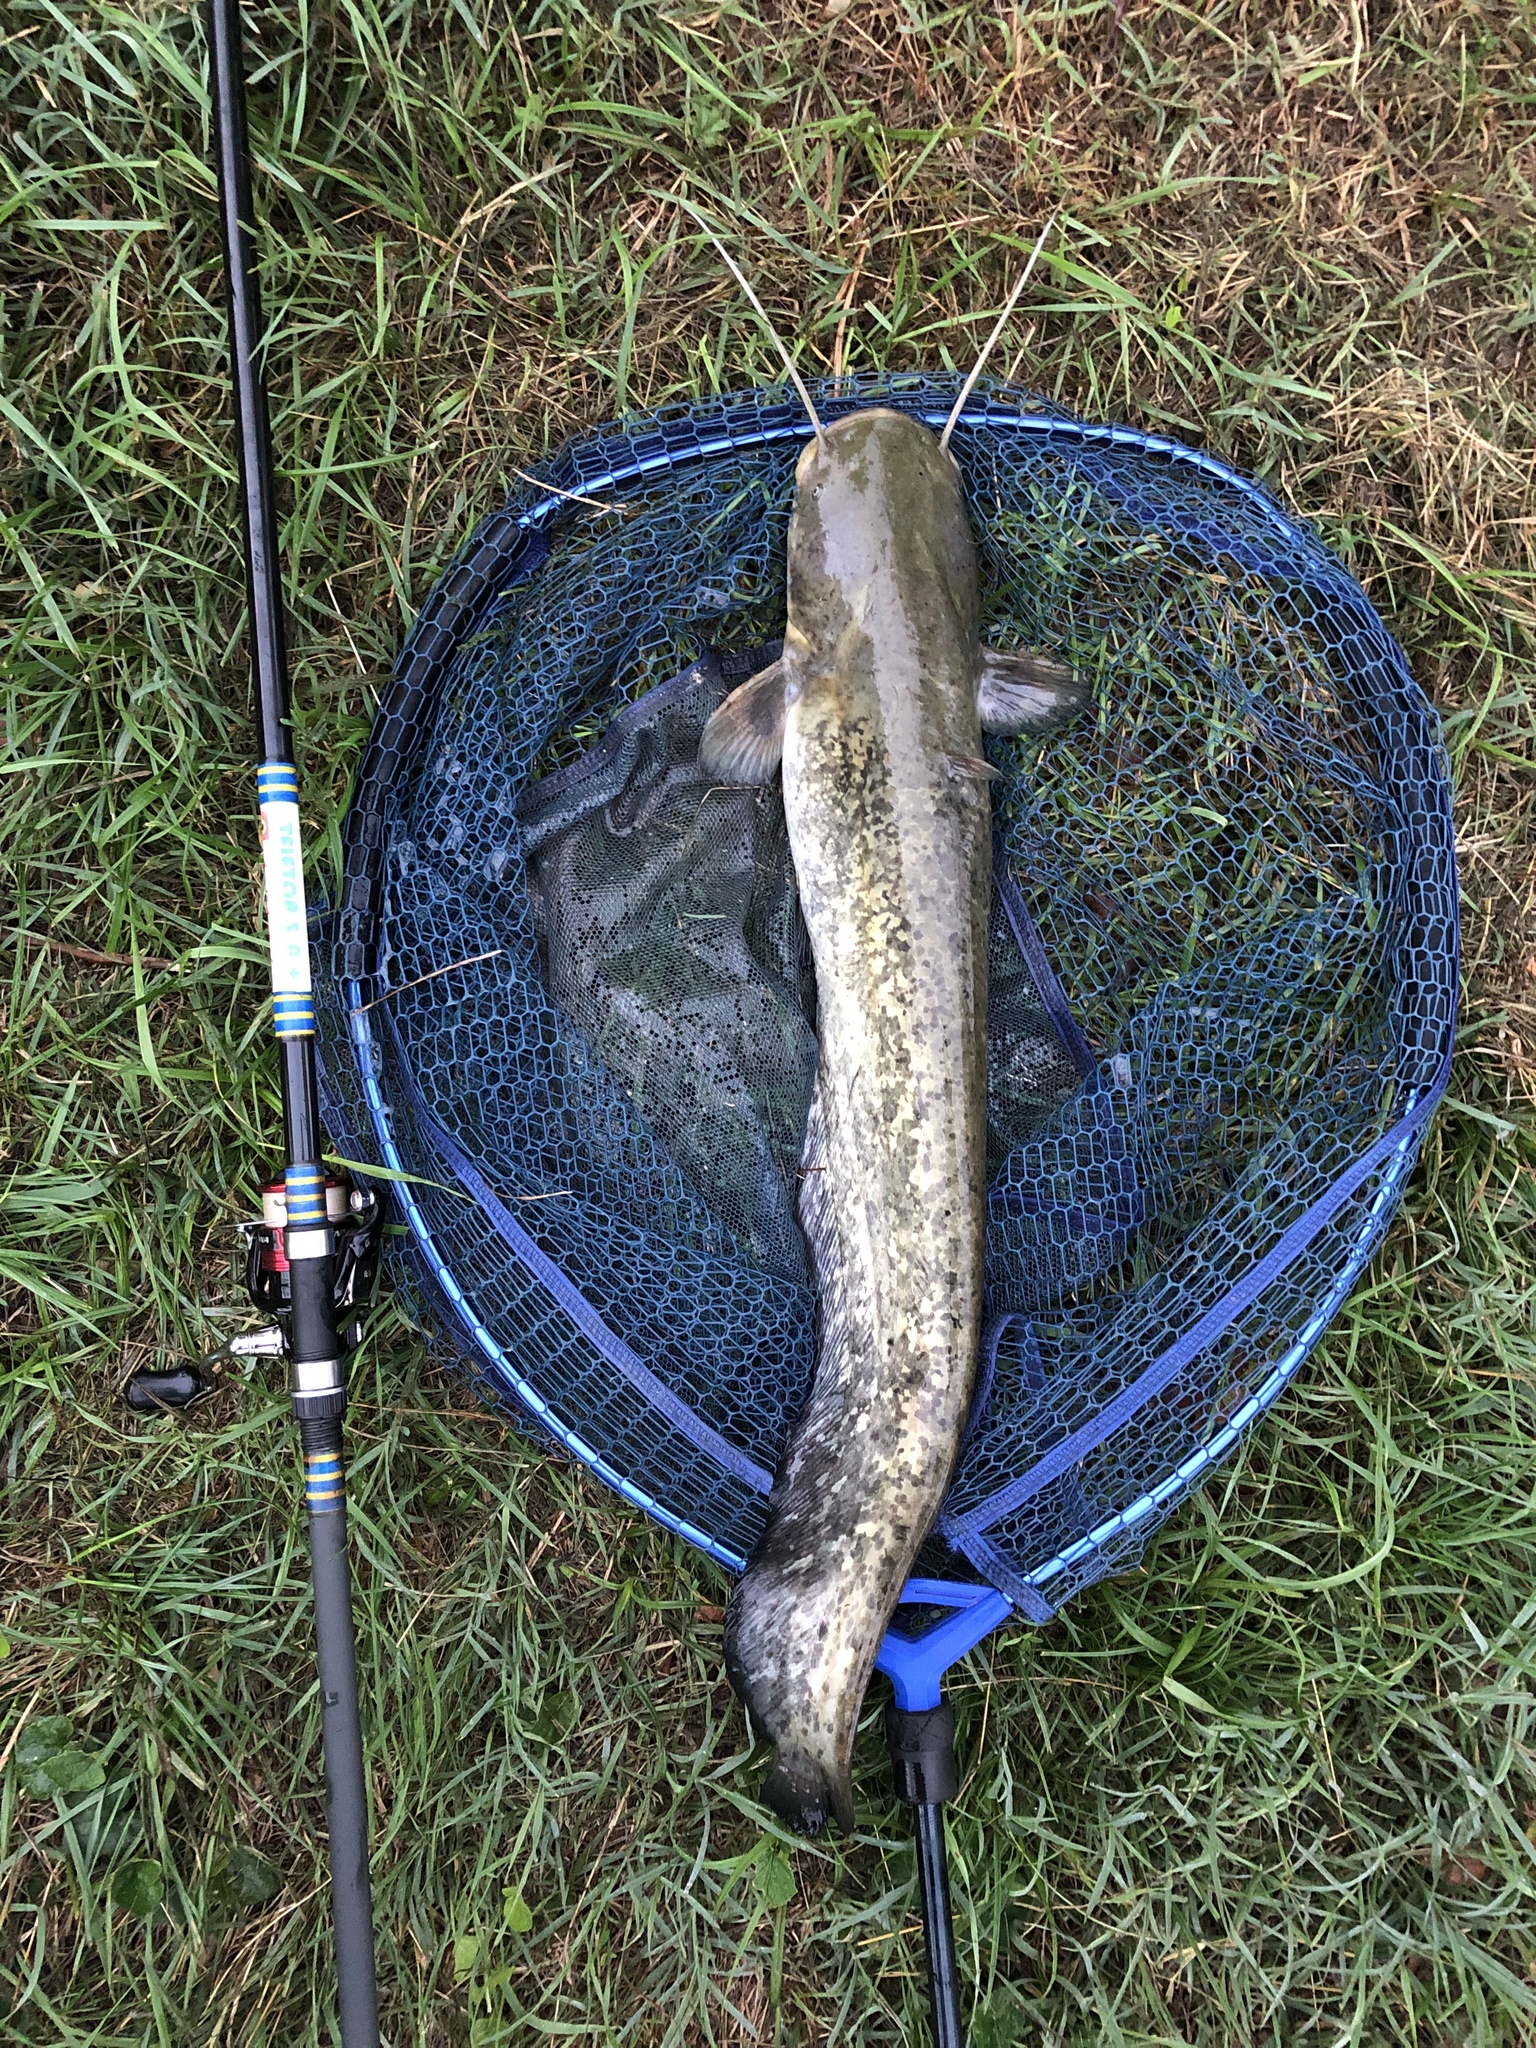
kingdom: Animalia
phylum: Chordata
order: Siluriformes
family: Siluridae
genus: Silurus
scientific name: Silurus glanis
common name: Wels
